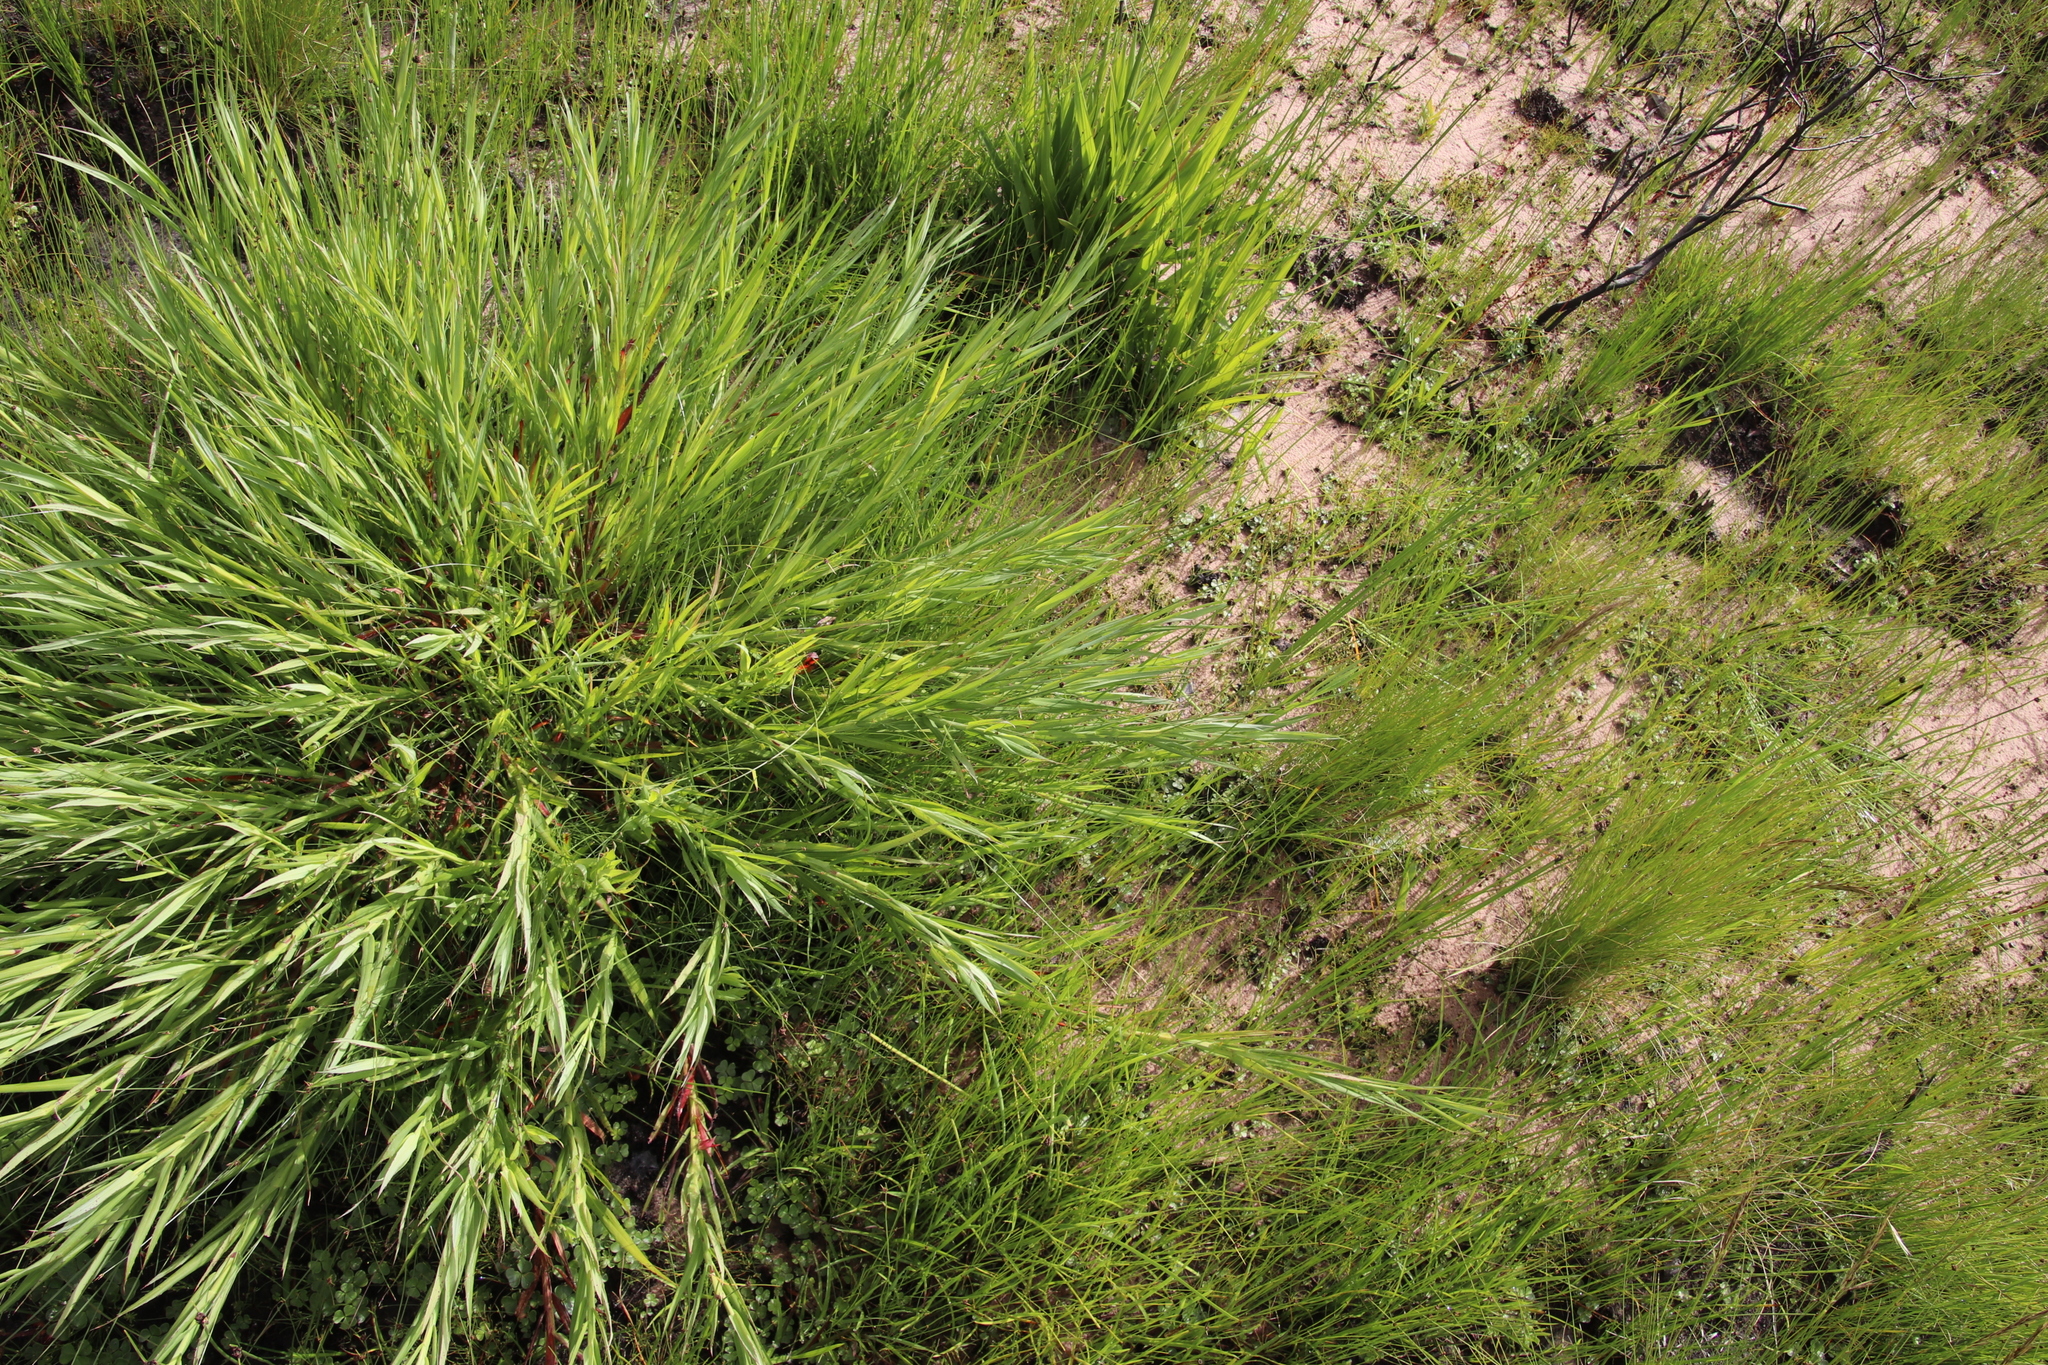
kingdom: Plantae
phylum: Tracheophyta
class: Magnoliopsida
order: Rosales
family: Rosaceae
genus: Cliffortia
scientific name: Cliffortia graminea
